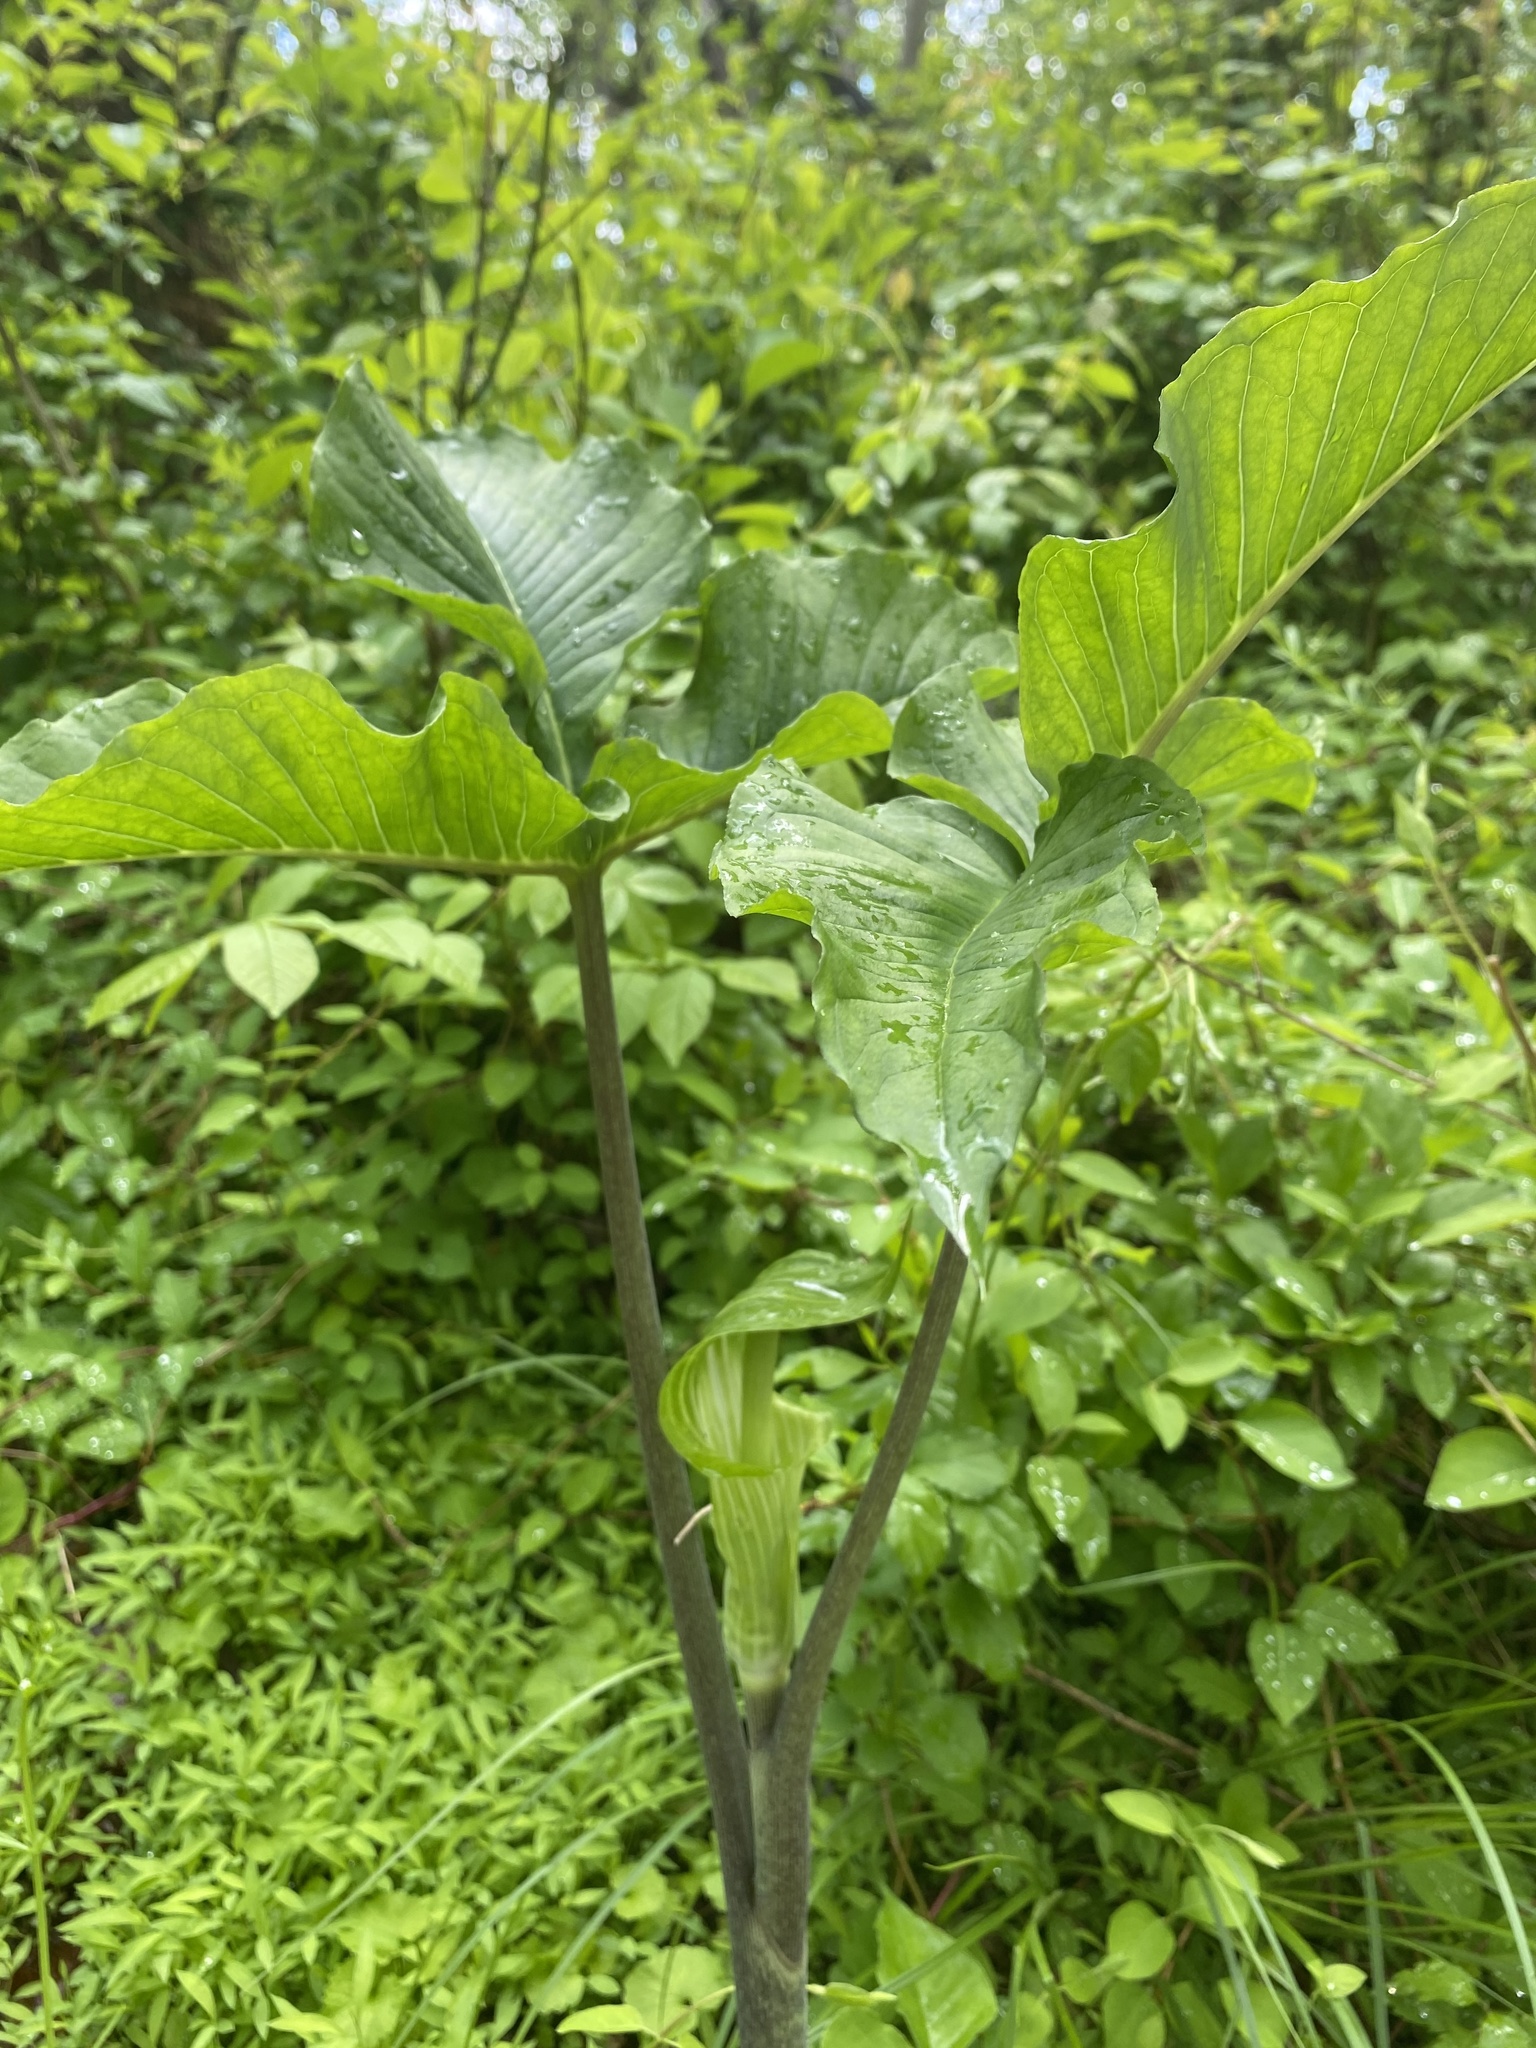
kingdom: Plantae
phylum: Tracheophyta
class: Liliopsida
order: Alismatales
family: Araceae
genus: Arisaema
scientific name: Arisaema triphyllum
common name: Jack-in-the-pulpit
